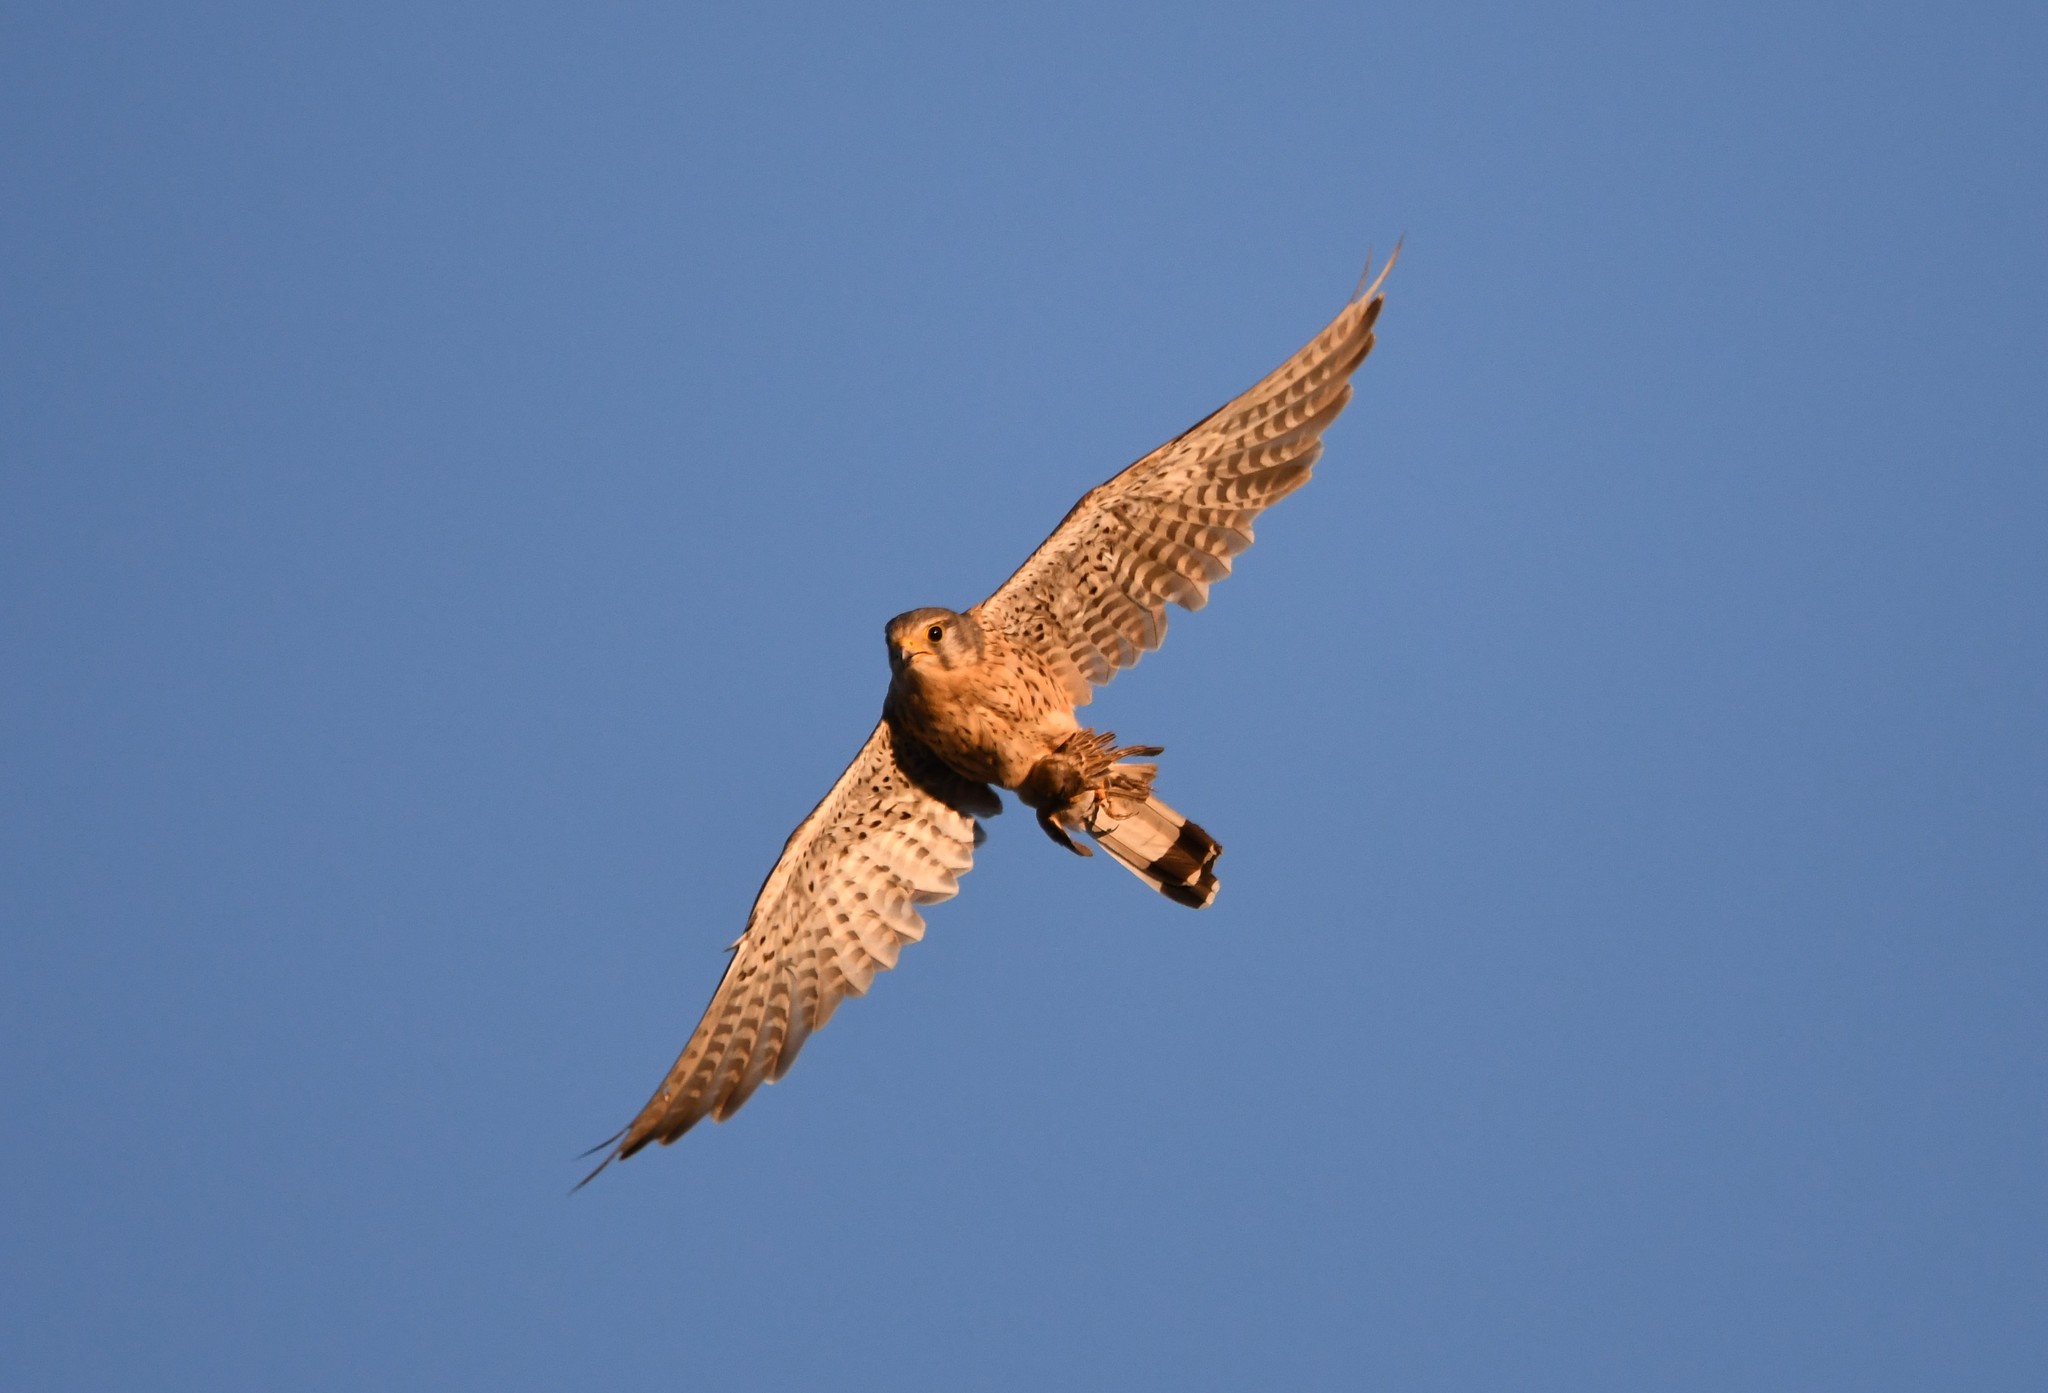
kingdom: Animalia
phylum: Chordata
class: Aves
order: Falconiformes
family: Falconidae
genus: Falco
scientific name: Falco tinnunculus
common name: Common kestrel
